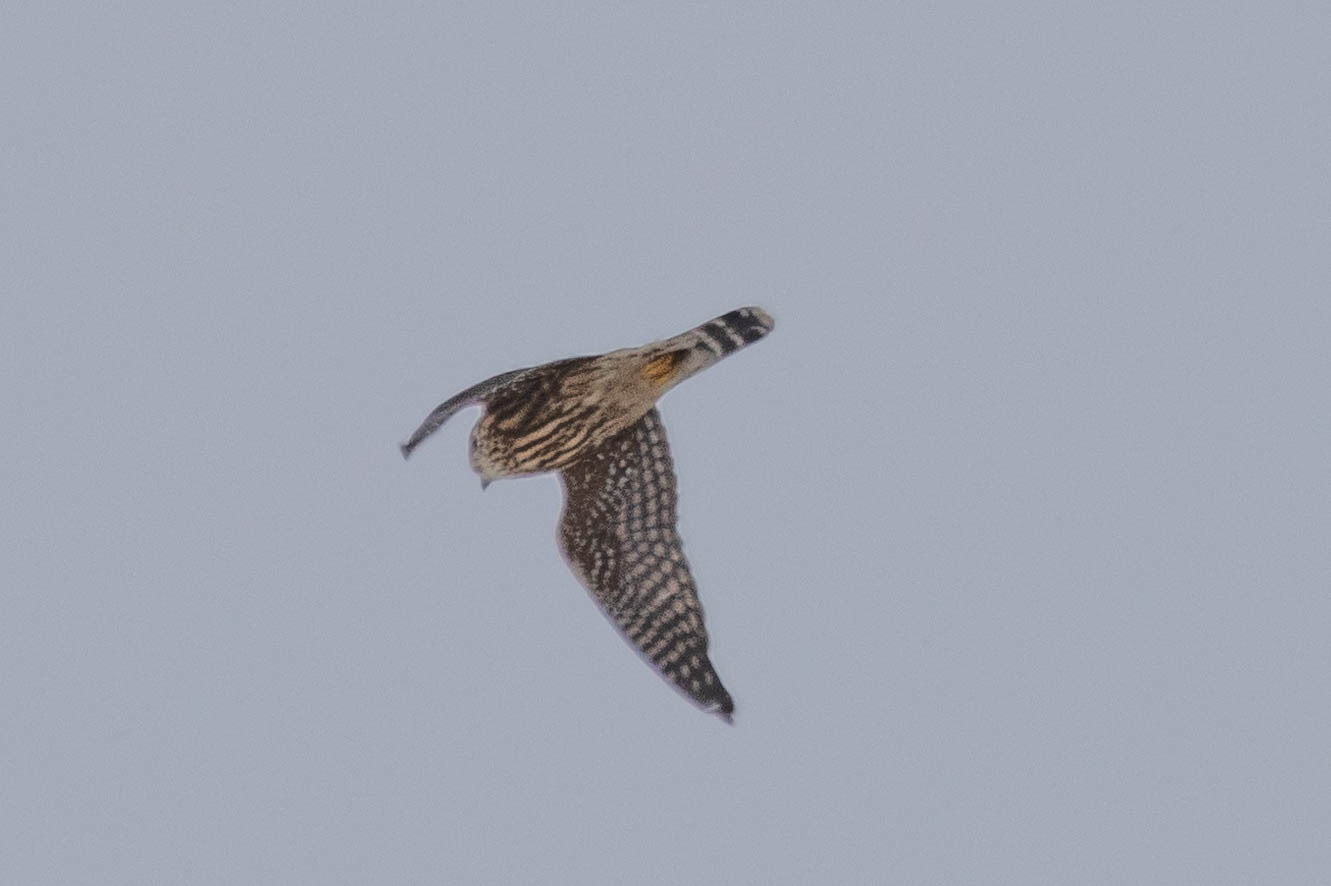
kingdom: Animalia
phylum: Chordata
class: Aves
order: Falconiformes
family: Falconidae
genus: Falco
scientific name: Falco columbarius
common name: Merlin
